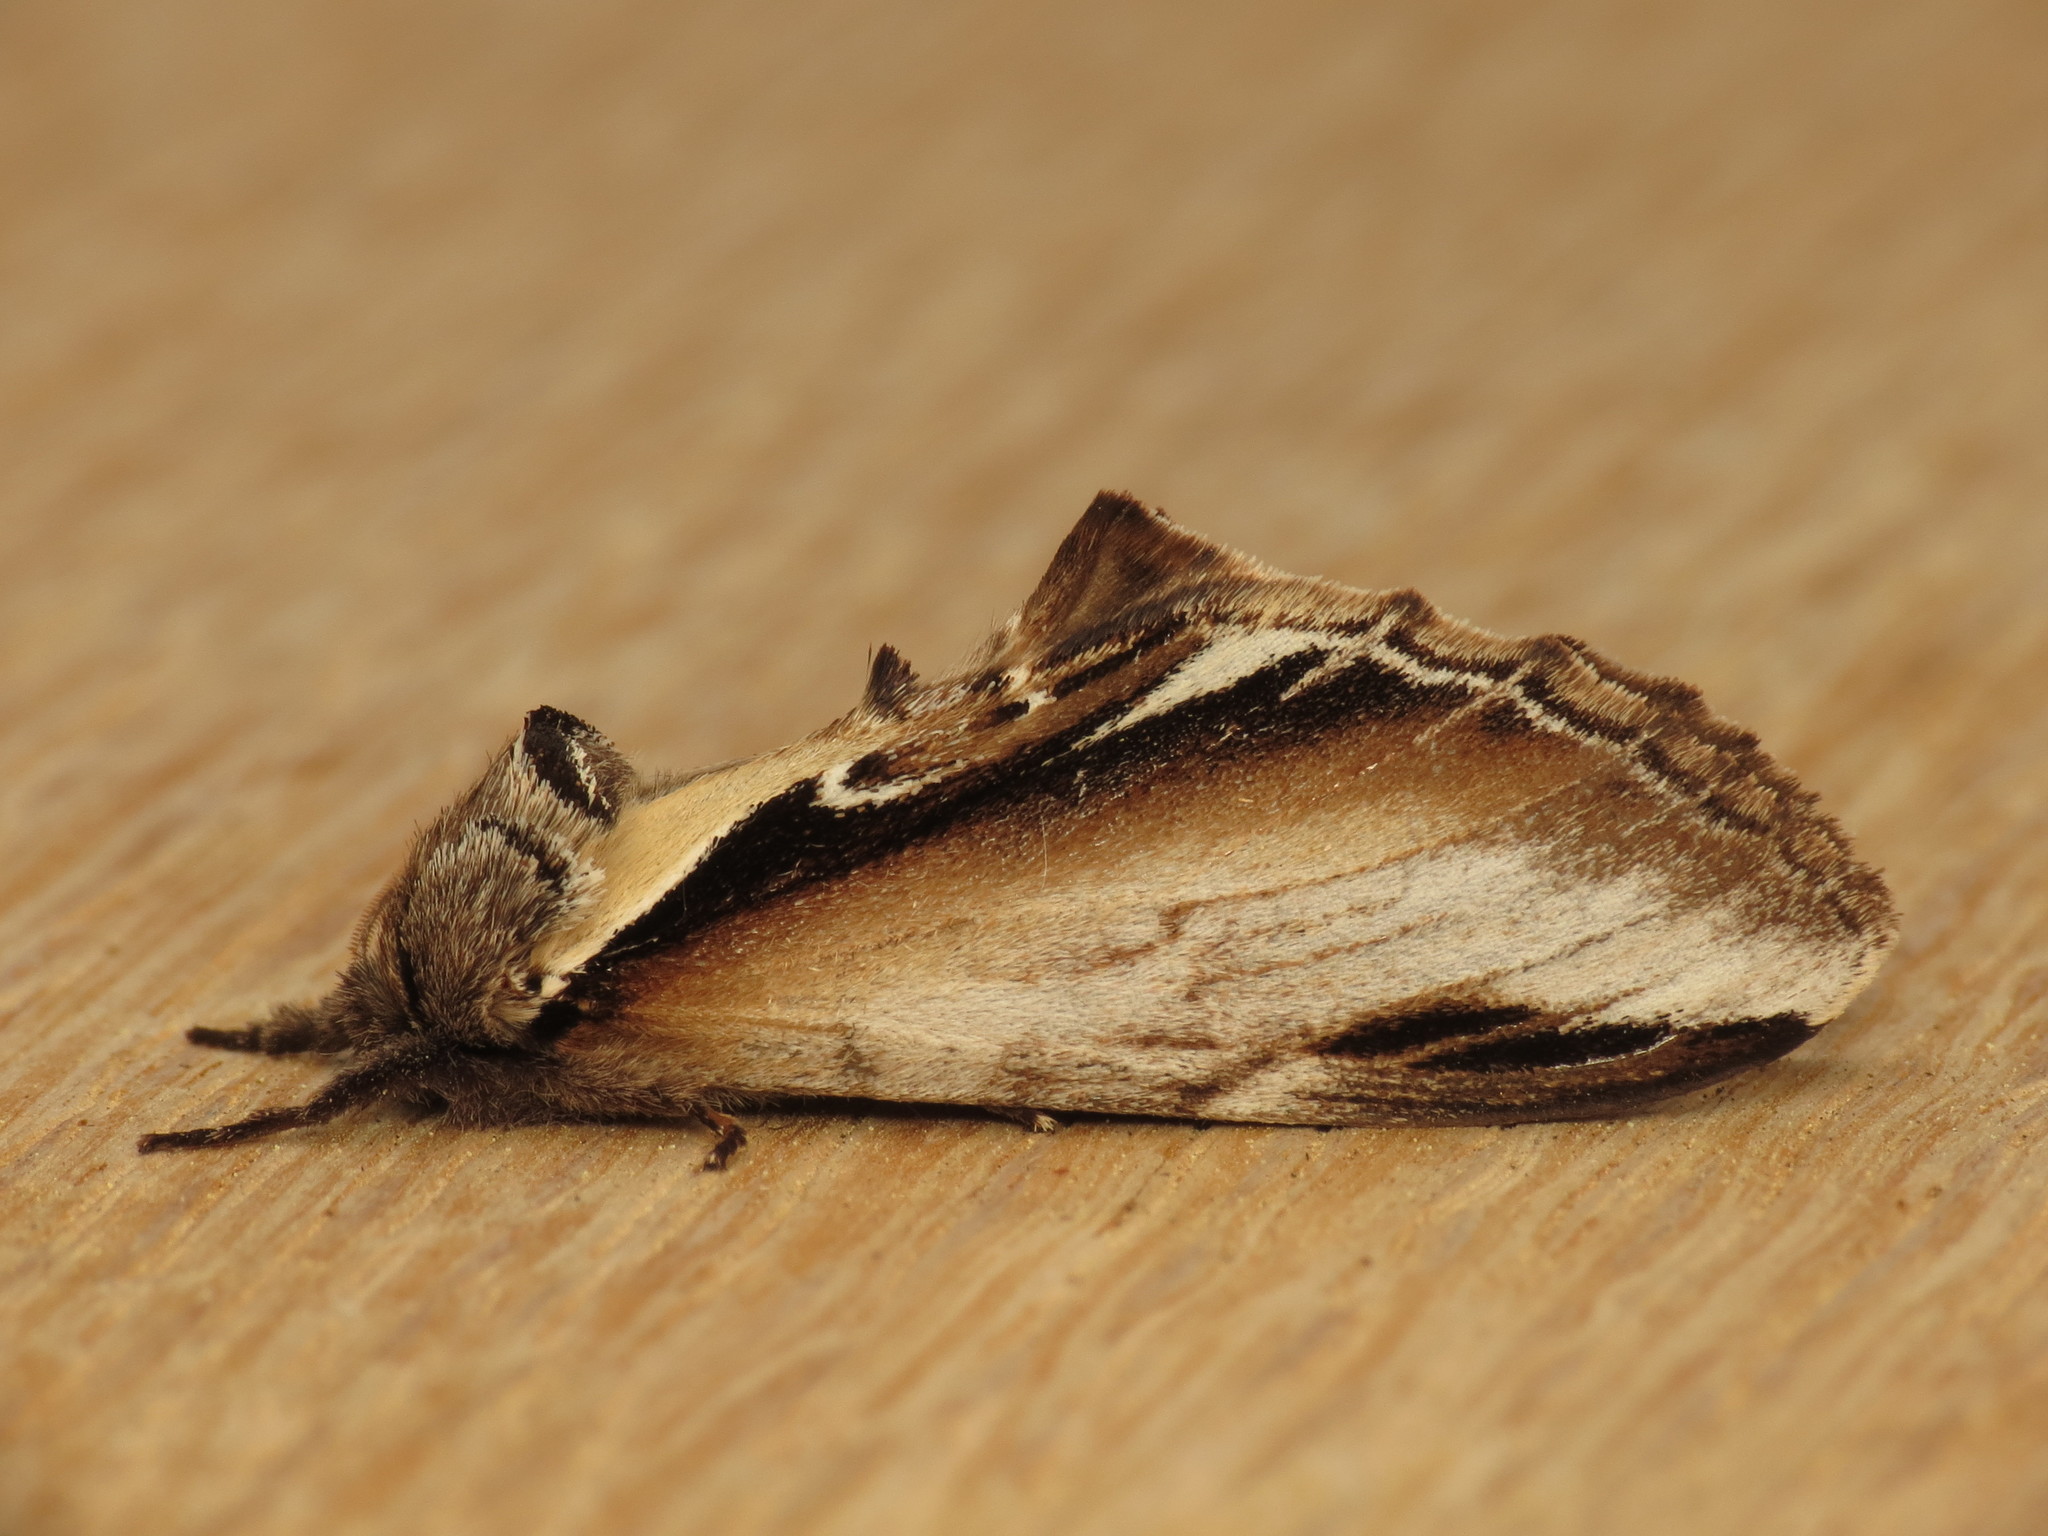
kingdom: Animalia
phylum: Arthropoda
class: Insecta
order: Lepidoptera
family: Notodontidae
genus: Pheosia
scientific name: Pheosia gnoma
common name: Lesser swallow prominent
